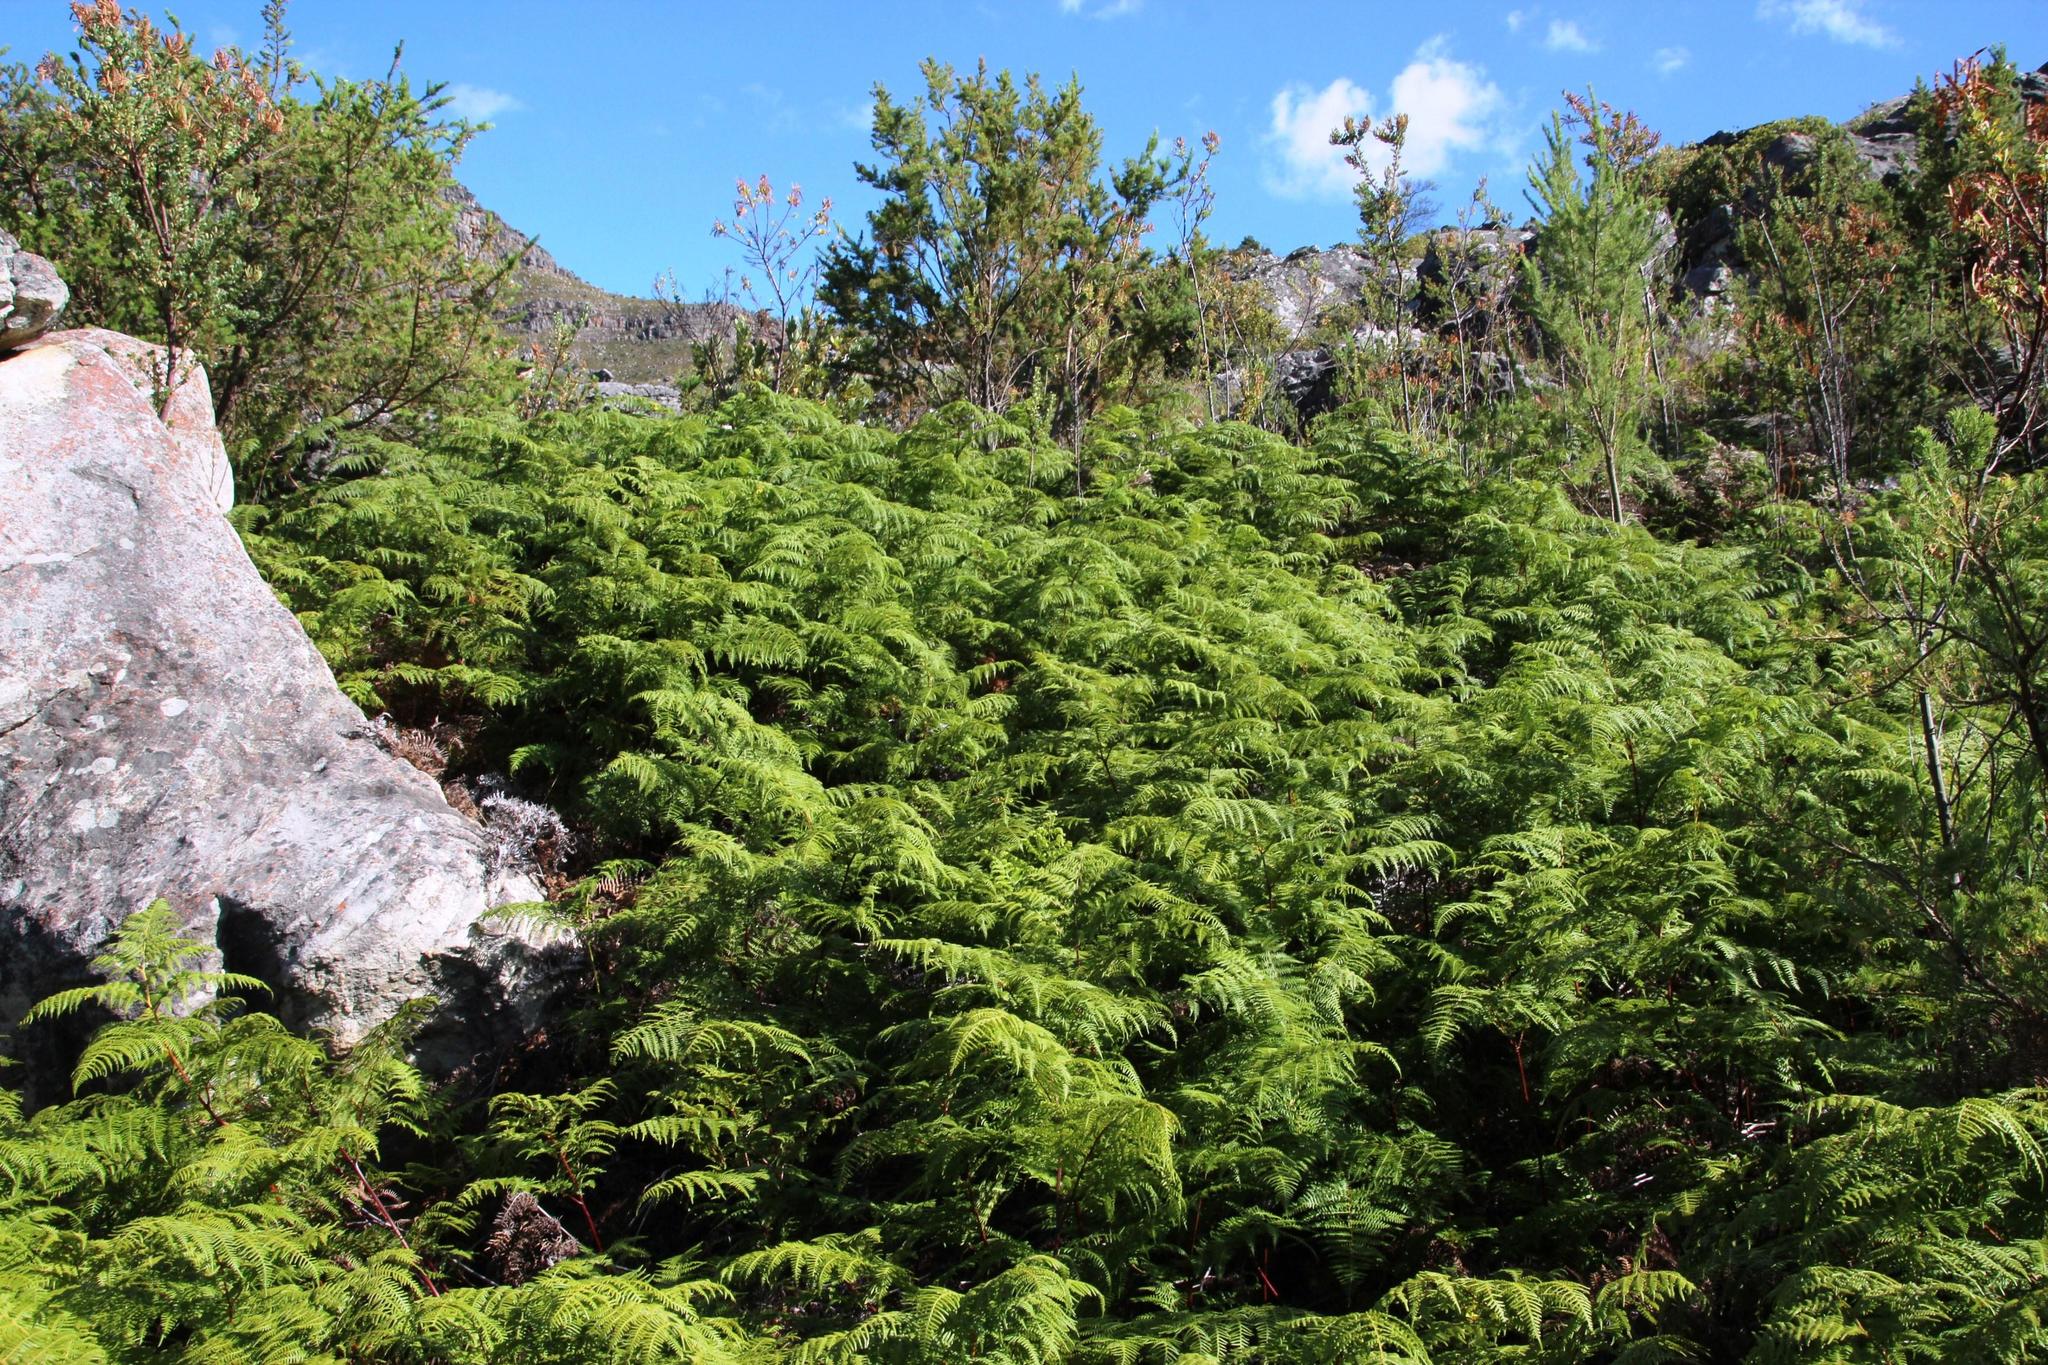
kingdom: Plantae
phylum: Tracheophyta
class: Polypodiopsida
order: Polypodiales
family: Dennstaedtiaceae
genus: Pteridium
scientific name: Pteridium aquilinum
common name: Bracken
